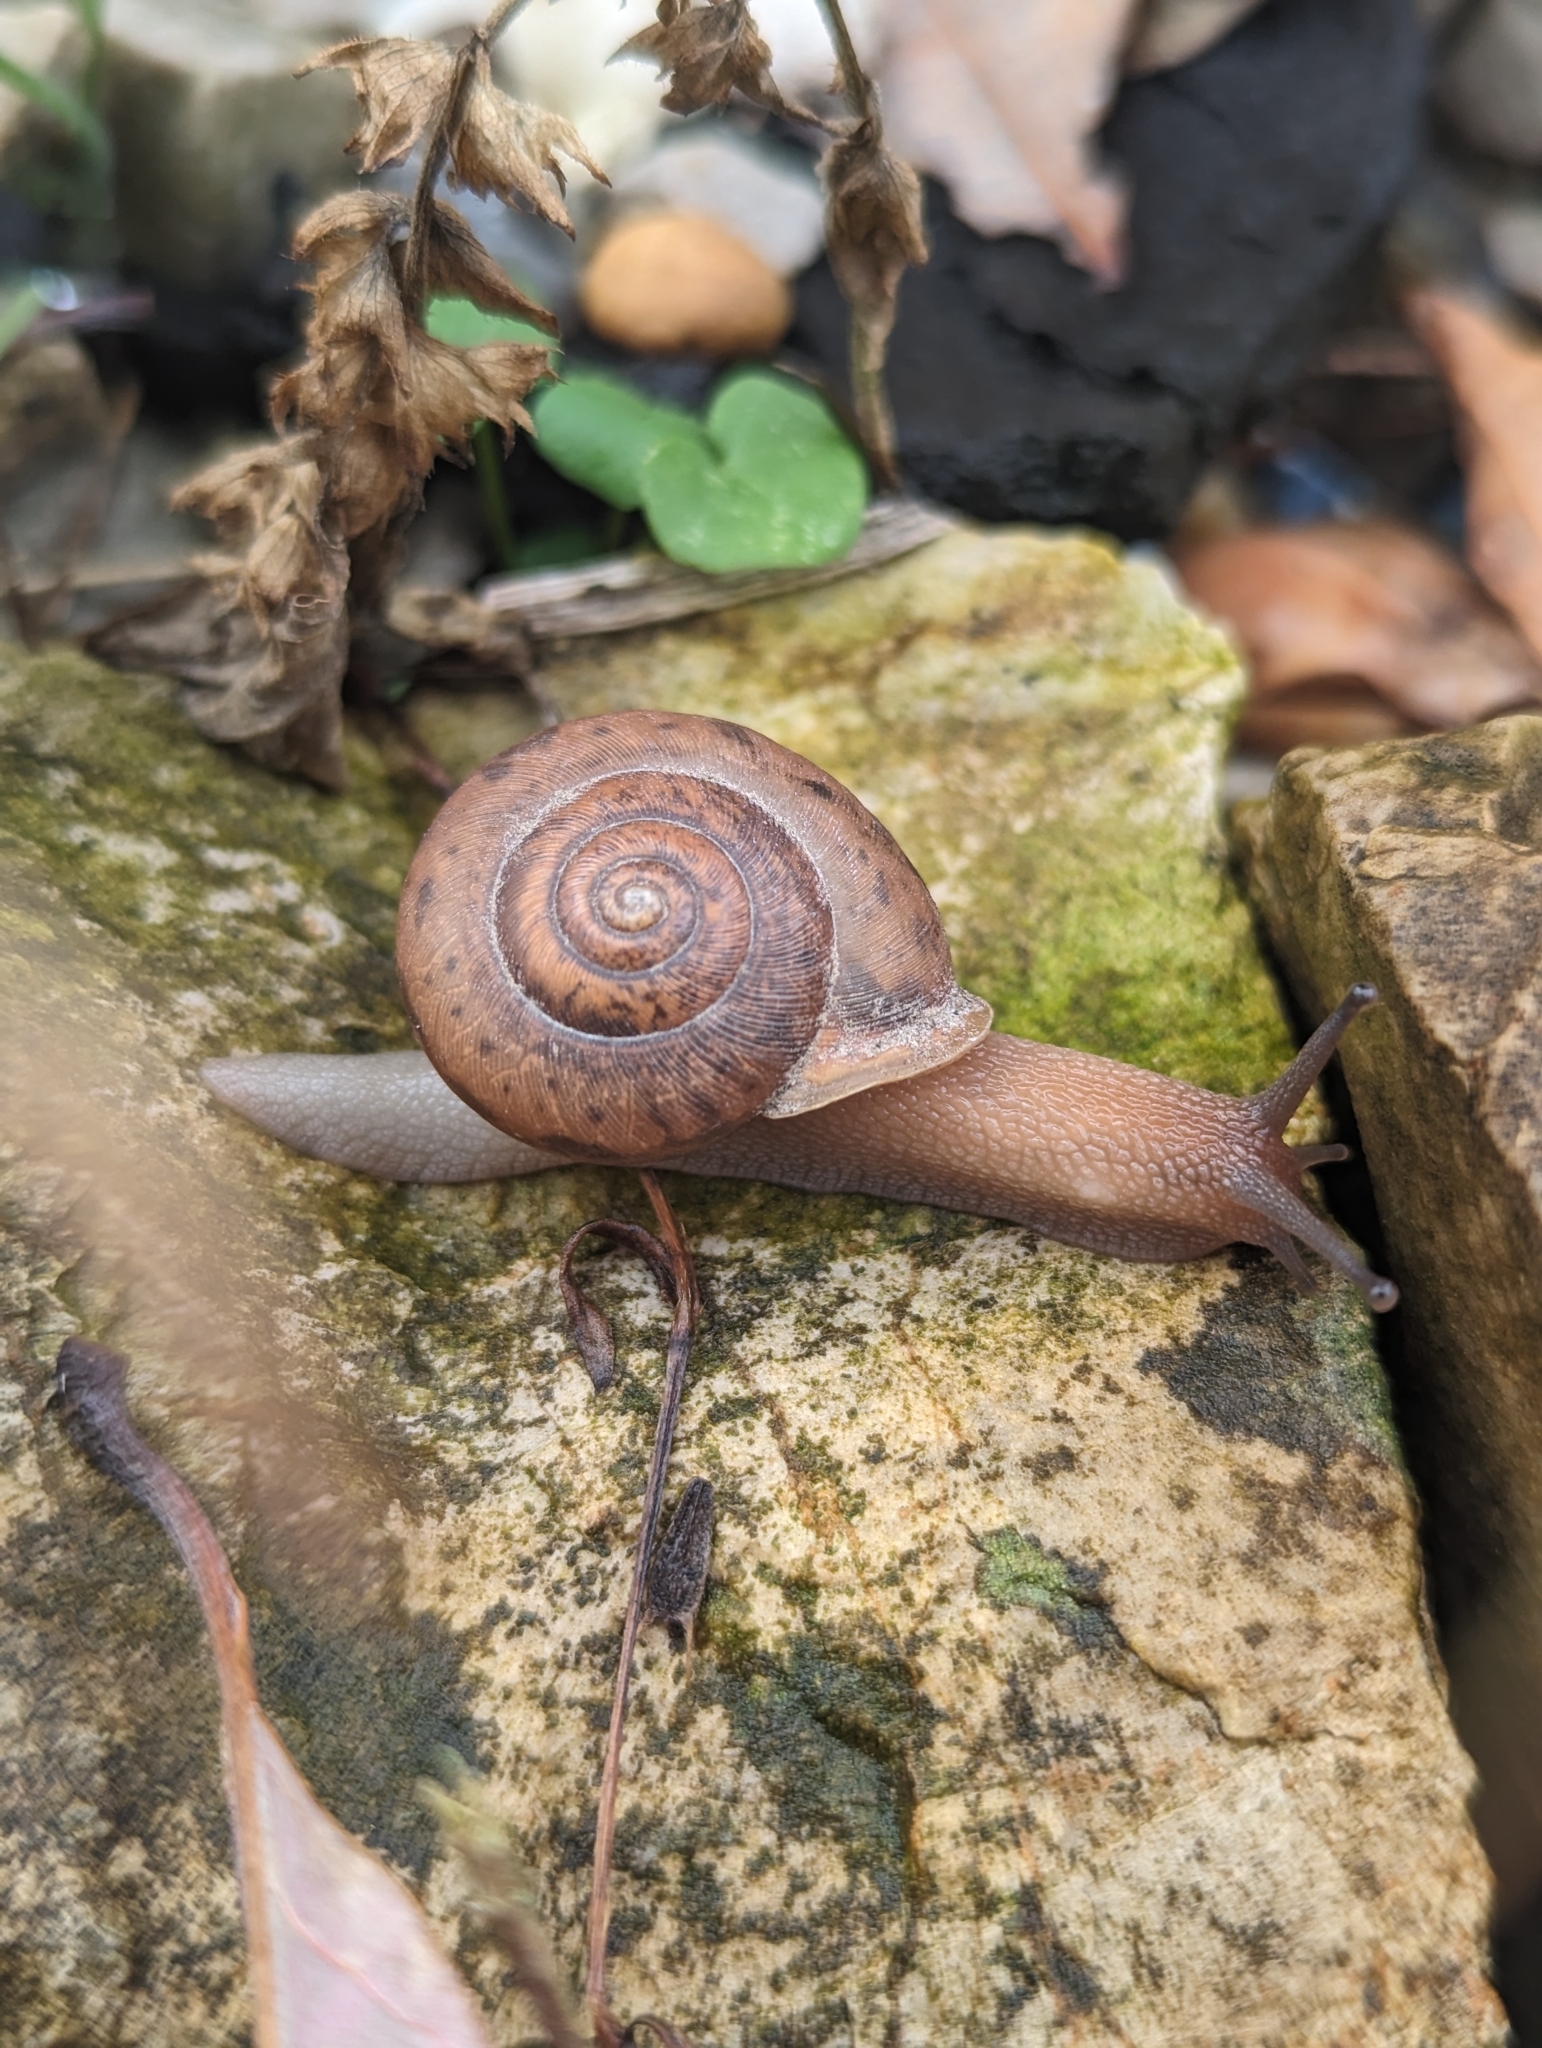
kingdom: Animalia
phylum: Mollusca
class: Gastropoda
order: Stylommatophora
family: Polygyridae
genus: Mesodon
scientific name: Mesodon thyroidus
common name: White-lip globe
